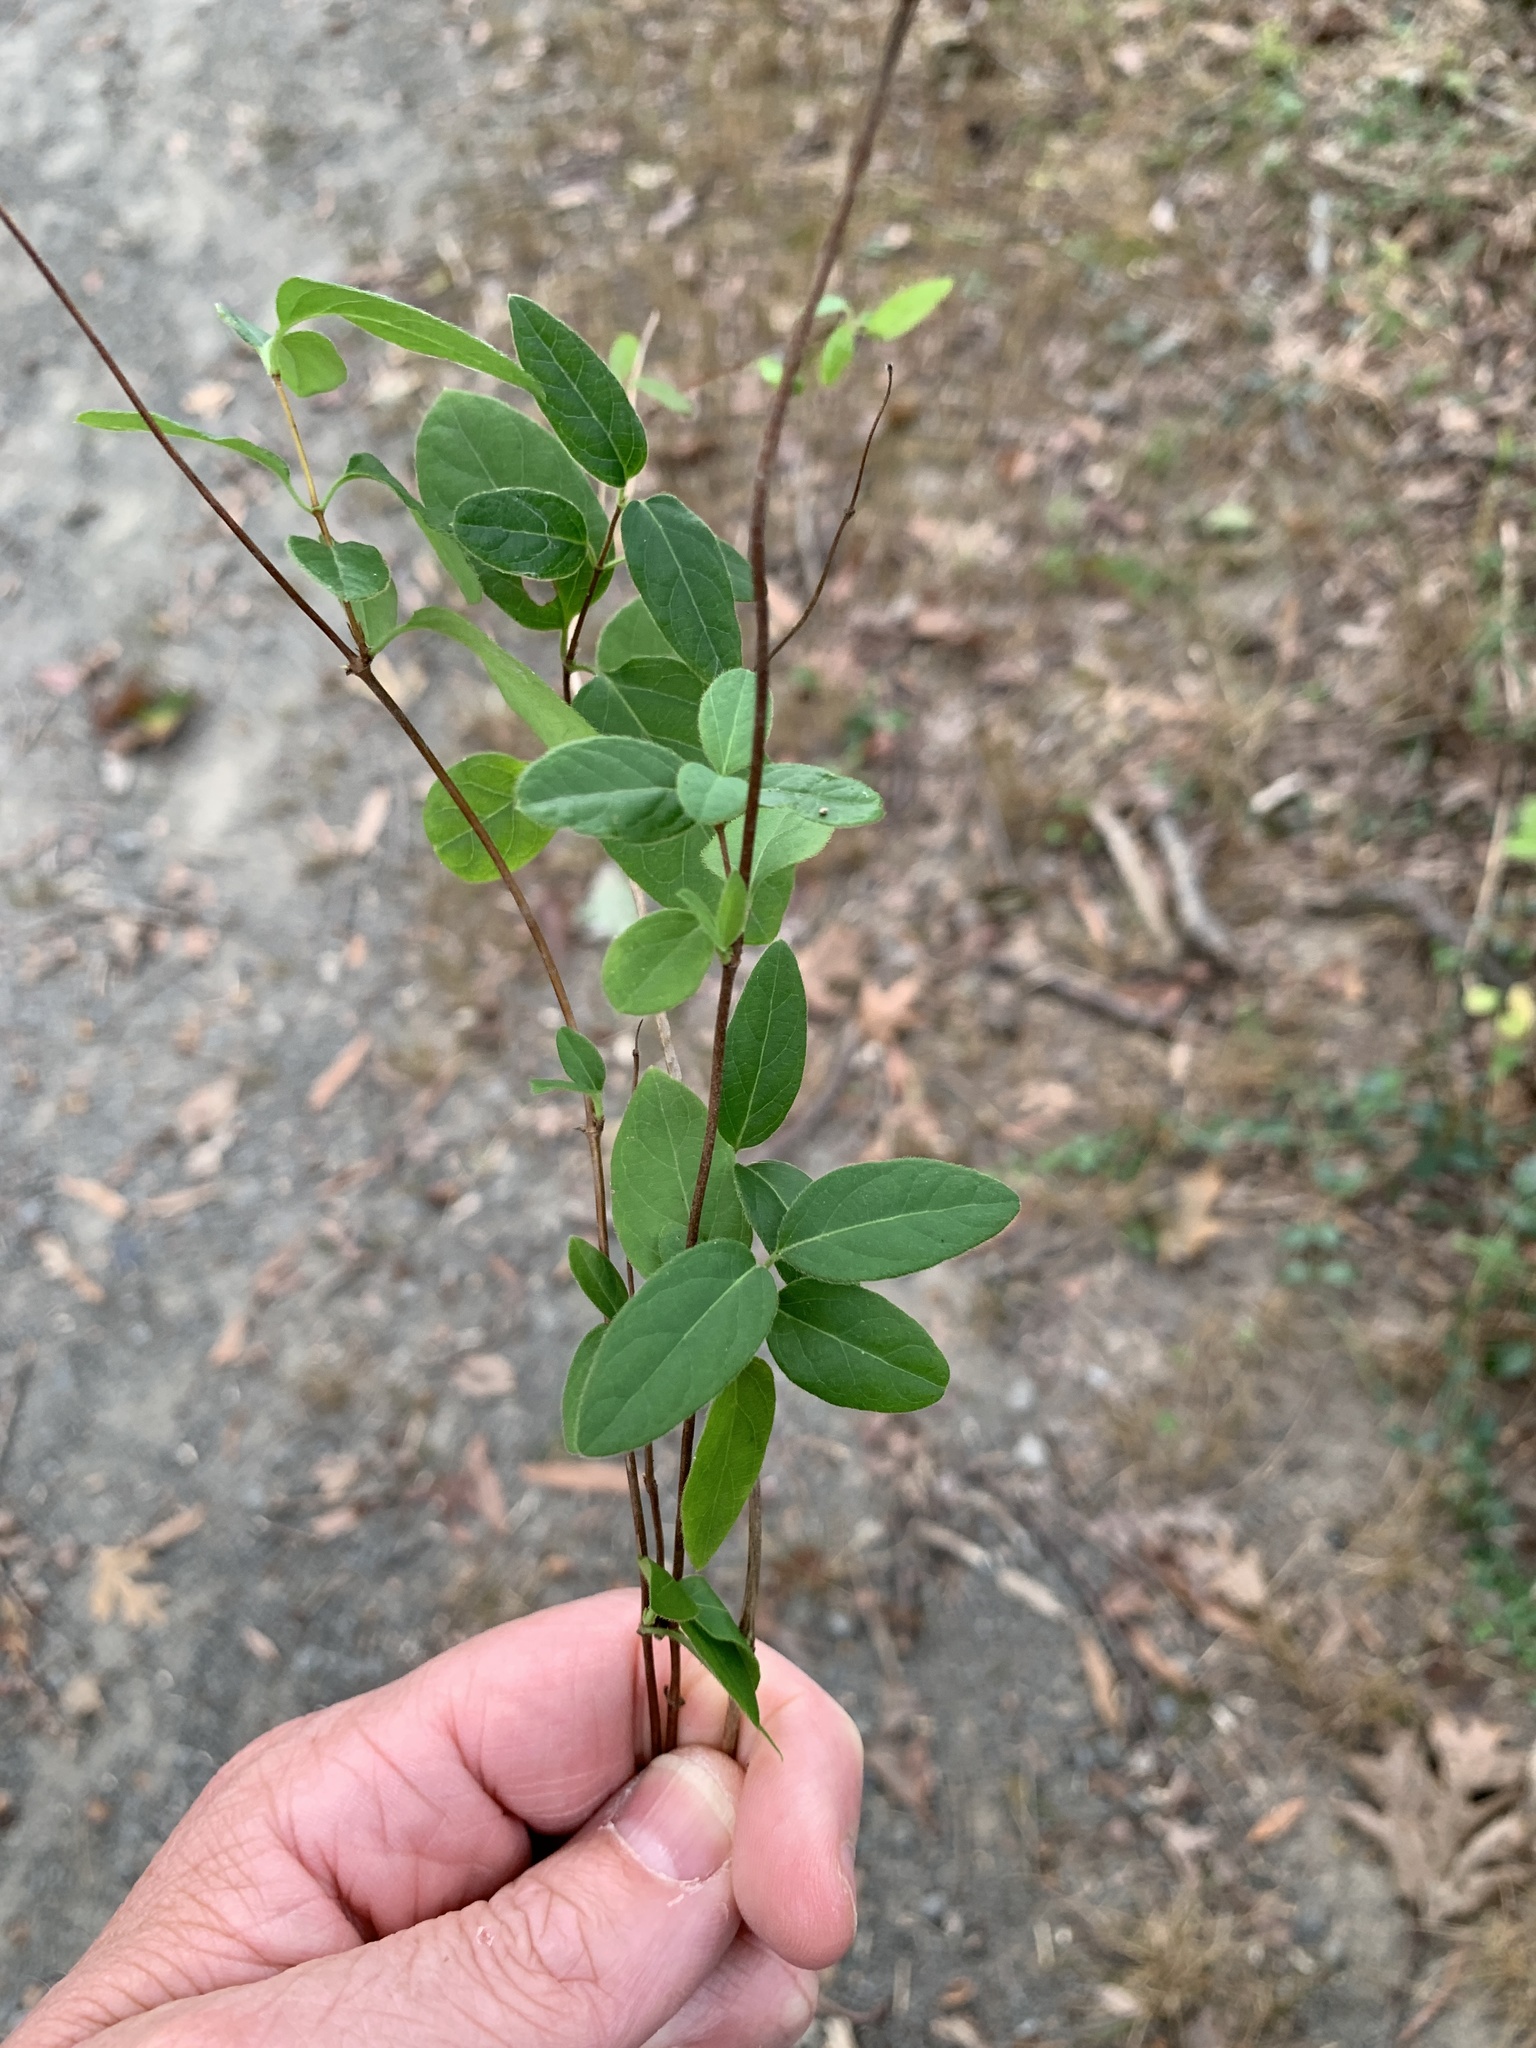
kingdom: Plantae
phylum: Tracheophyta
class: Magnoliopsida
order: Dipsacales
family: Caprifoliaceae
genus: Lonicera
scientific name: Lonicera japonica
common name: Japanese honeysuckle
